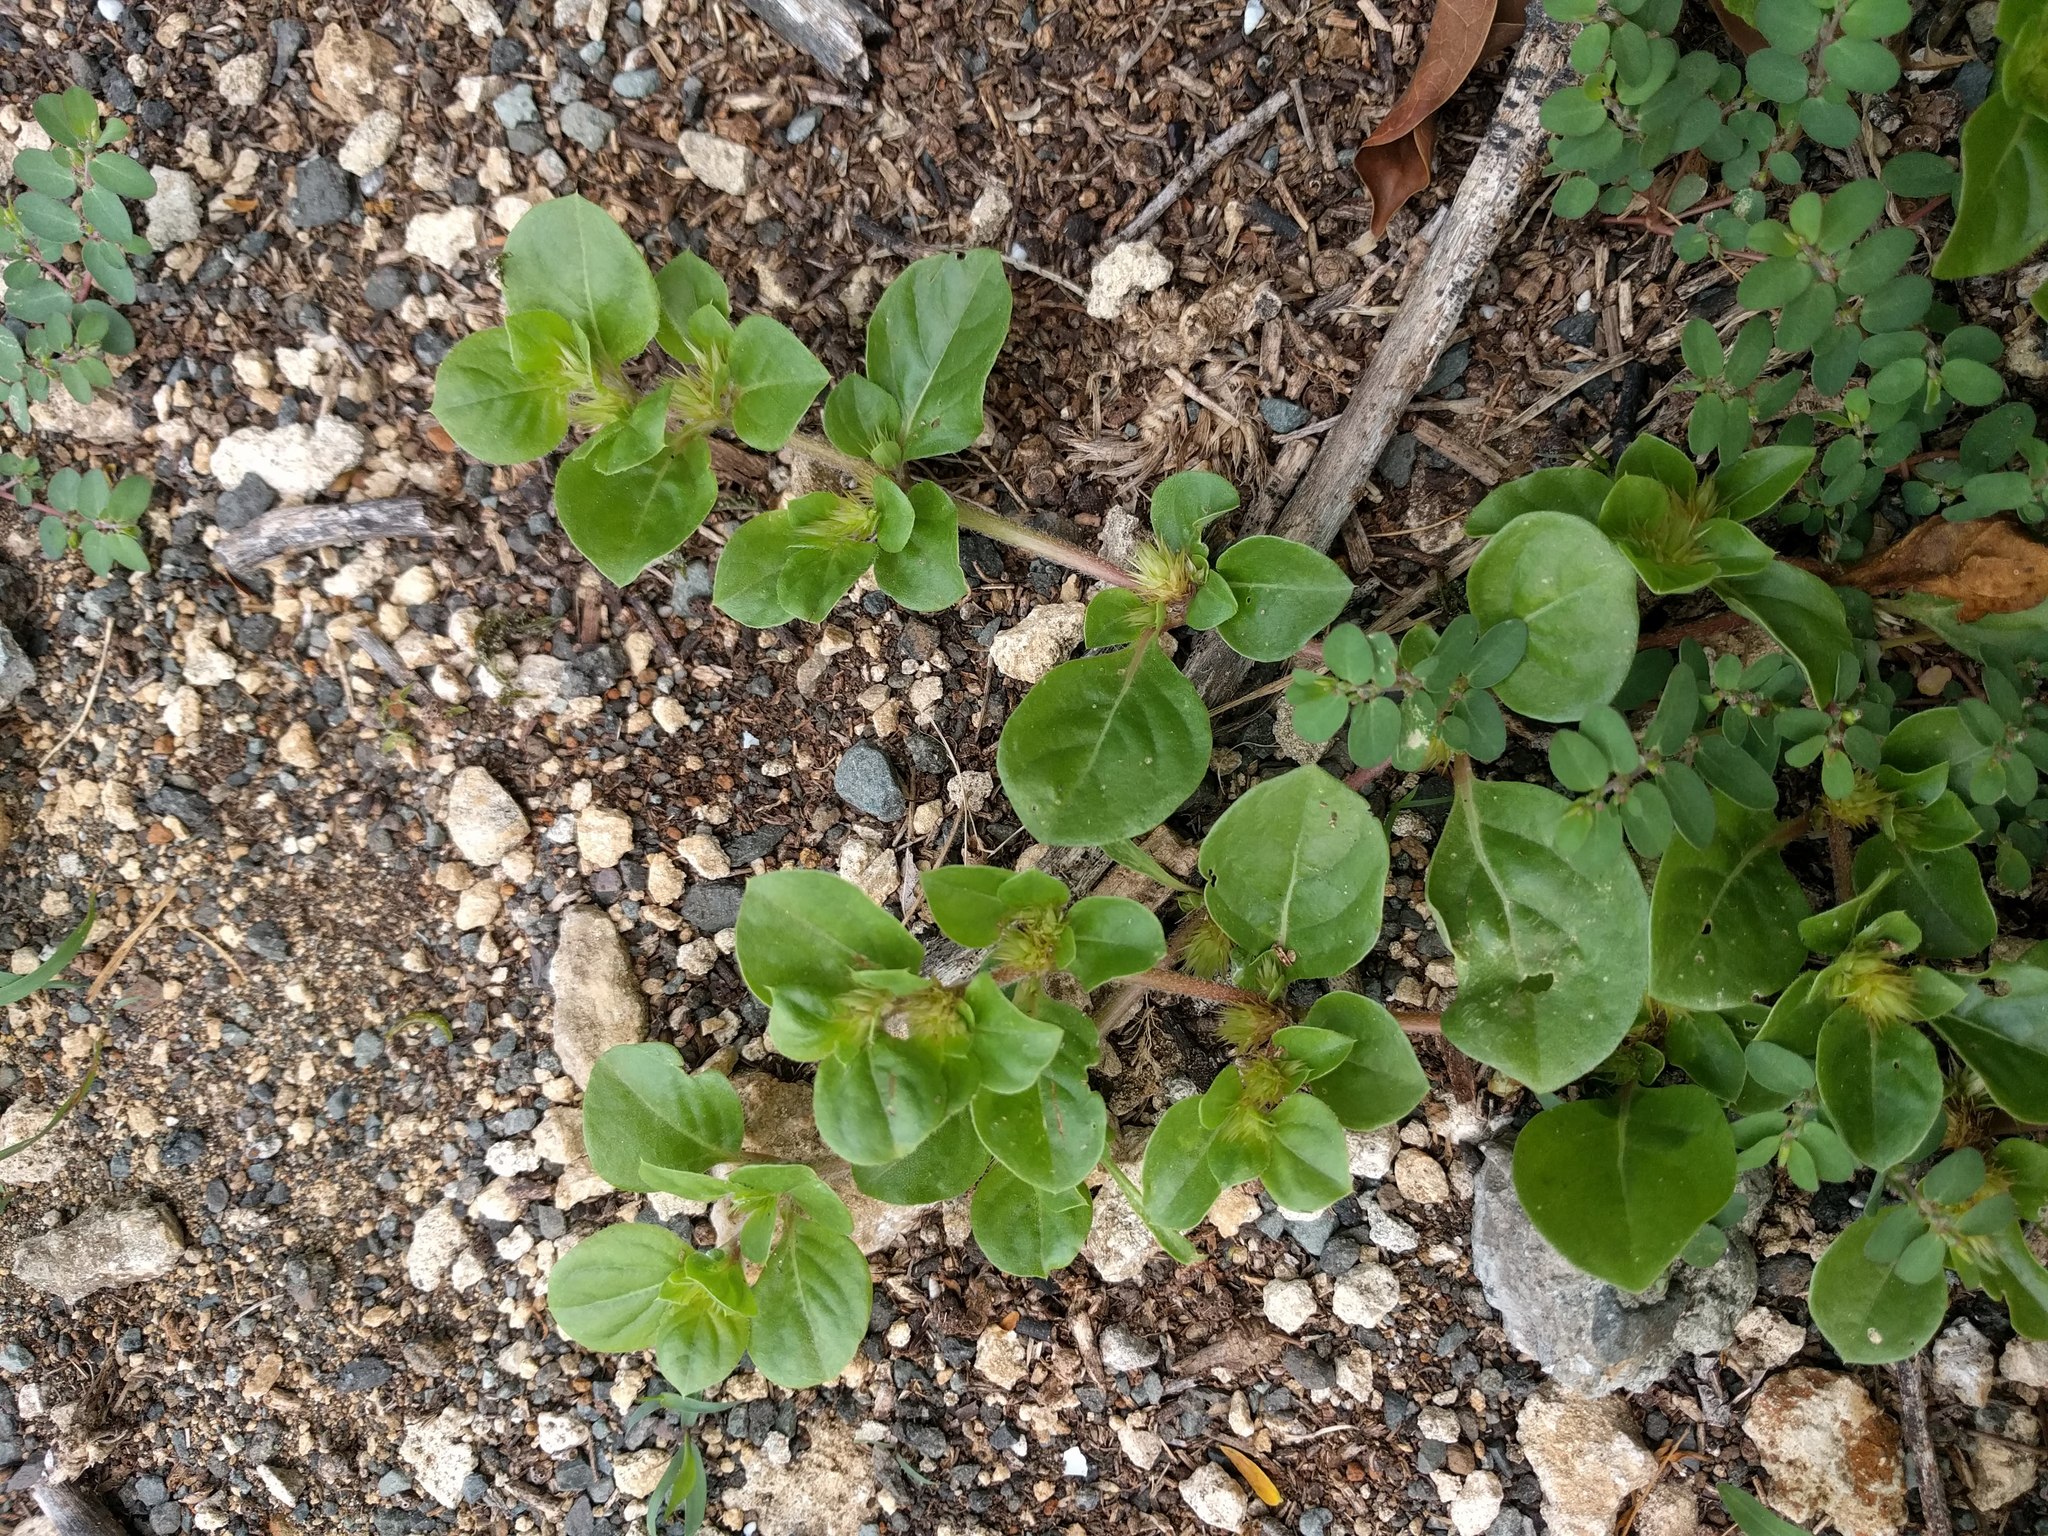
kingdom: Plantae
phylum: Tracheophyta
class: Magnoliopsida
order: Caryophyllales
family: Amaranthaceae
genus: Alternanthera
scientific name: Alternanthera pungens
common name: Khakiweed
